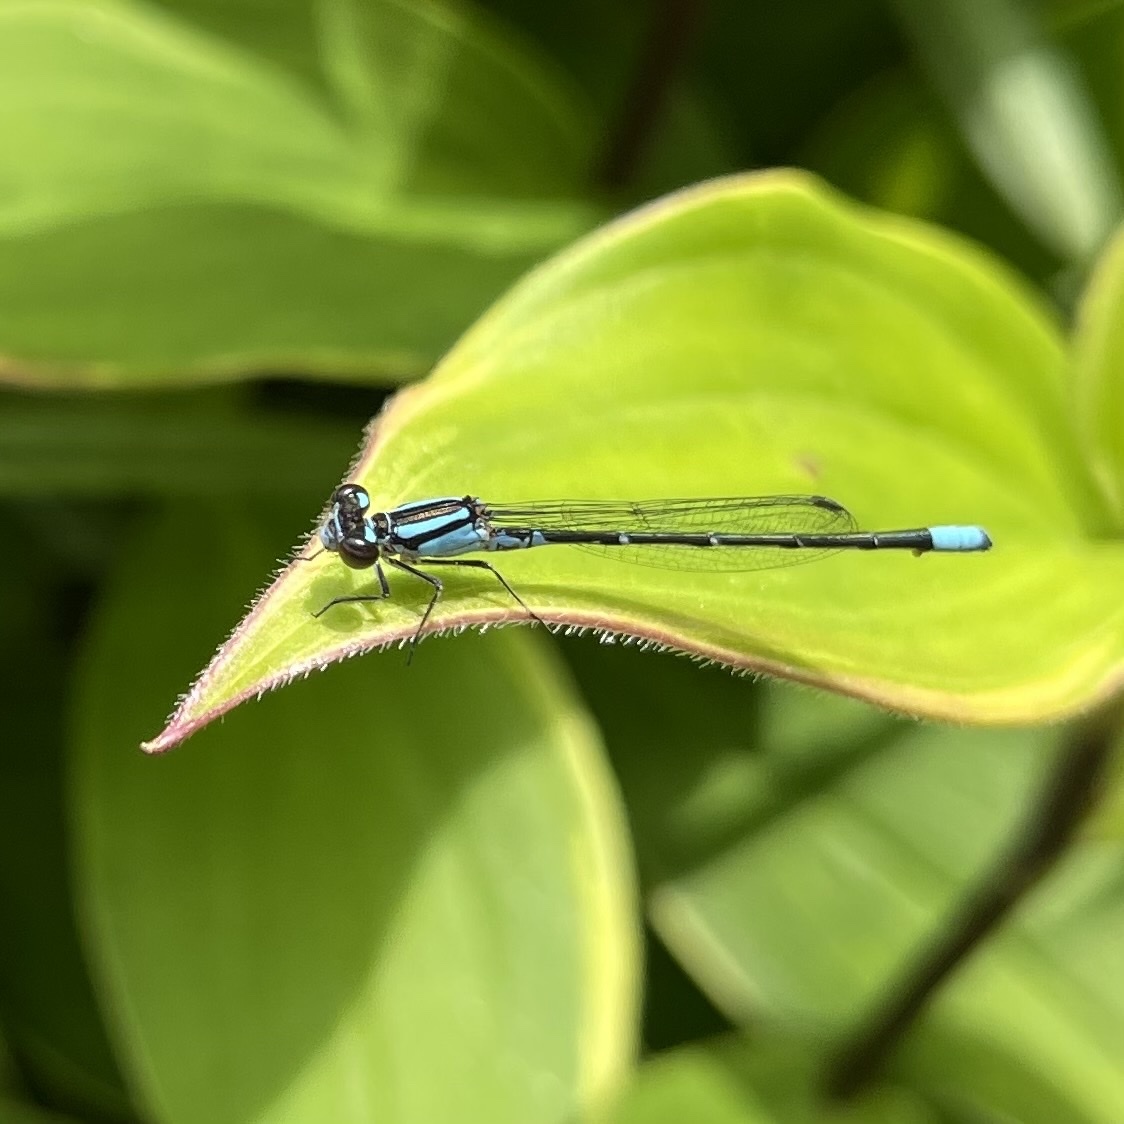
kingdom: Animalia
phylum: Arthropoda
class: Insecta
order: Odonata
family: Coenagrionidae
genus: Enallagma
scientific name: Enallagma geminatum
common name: Skimming bluet
